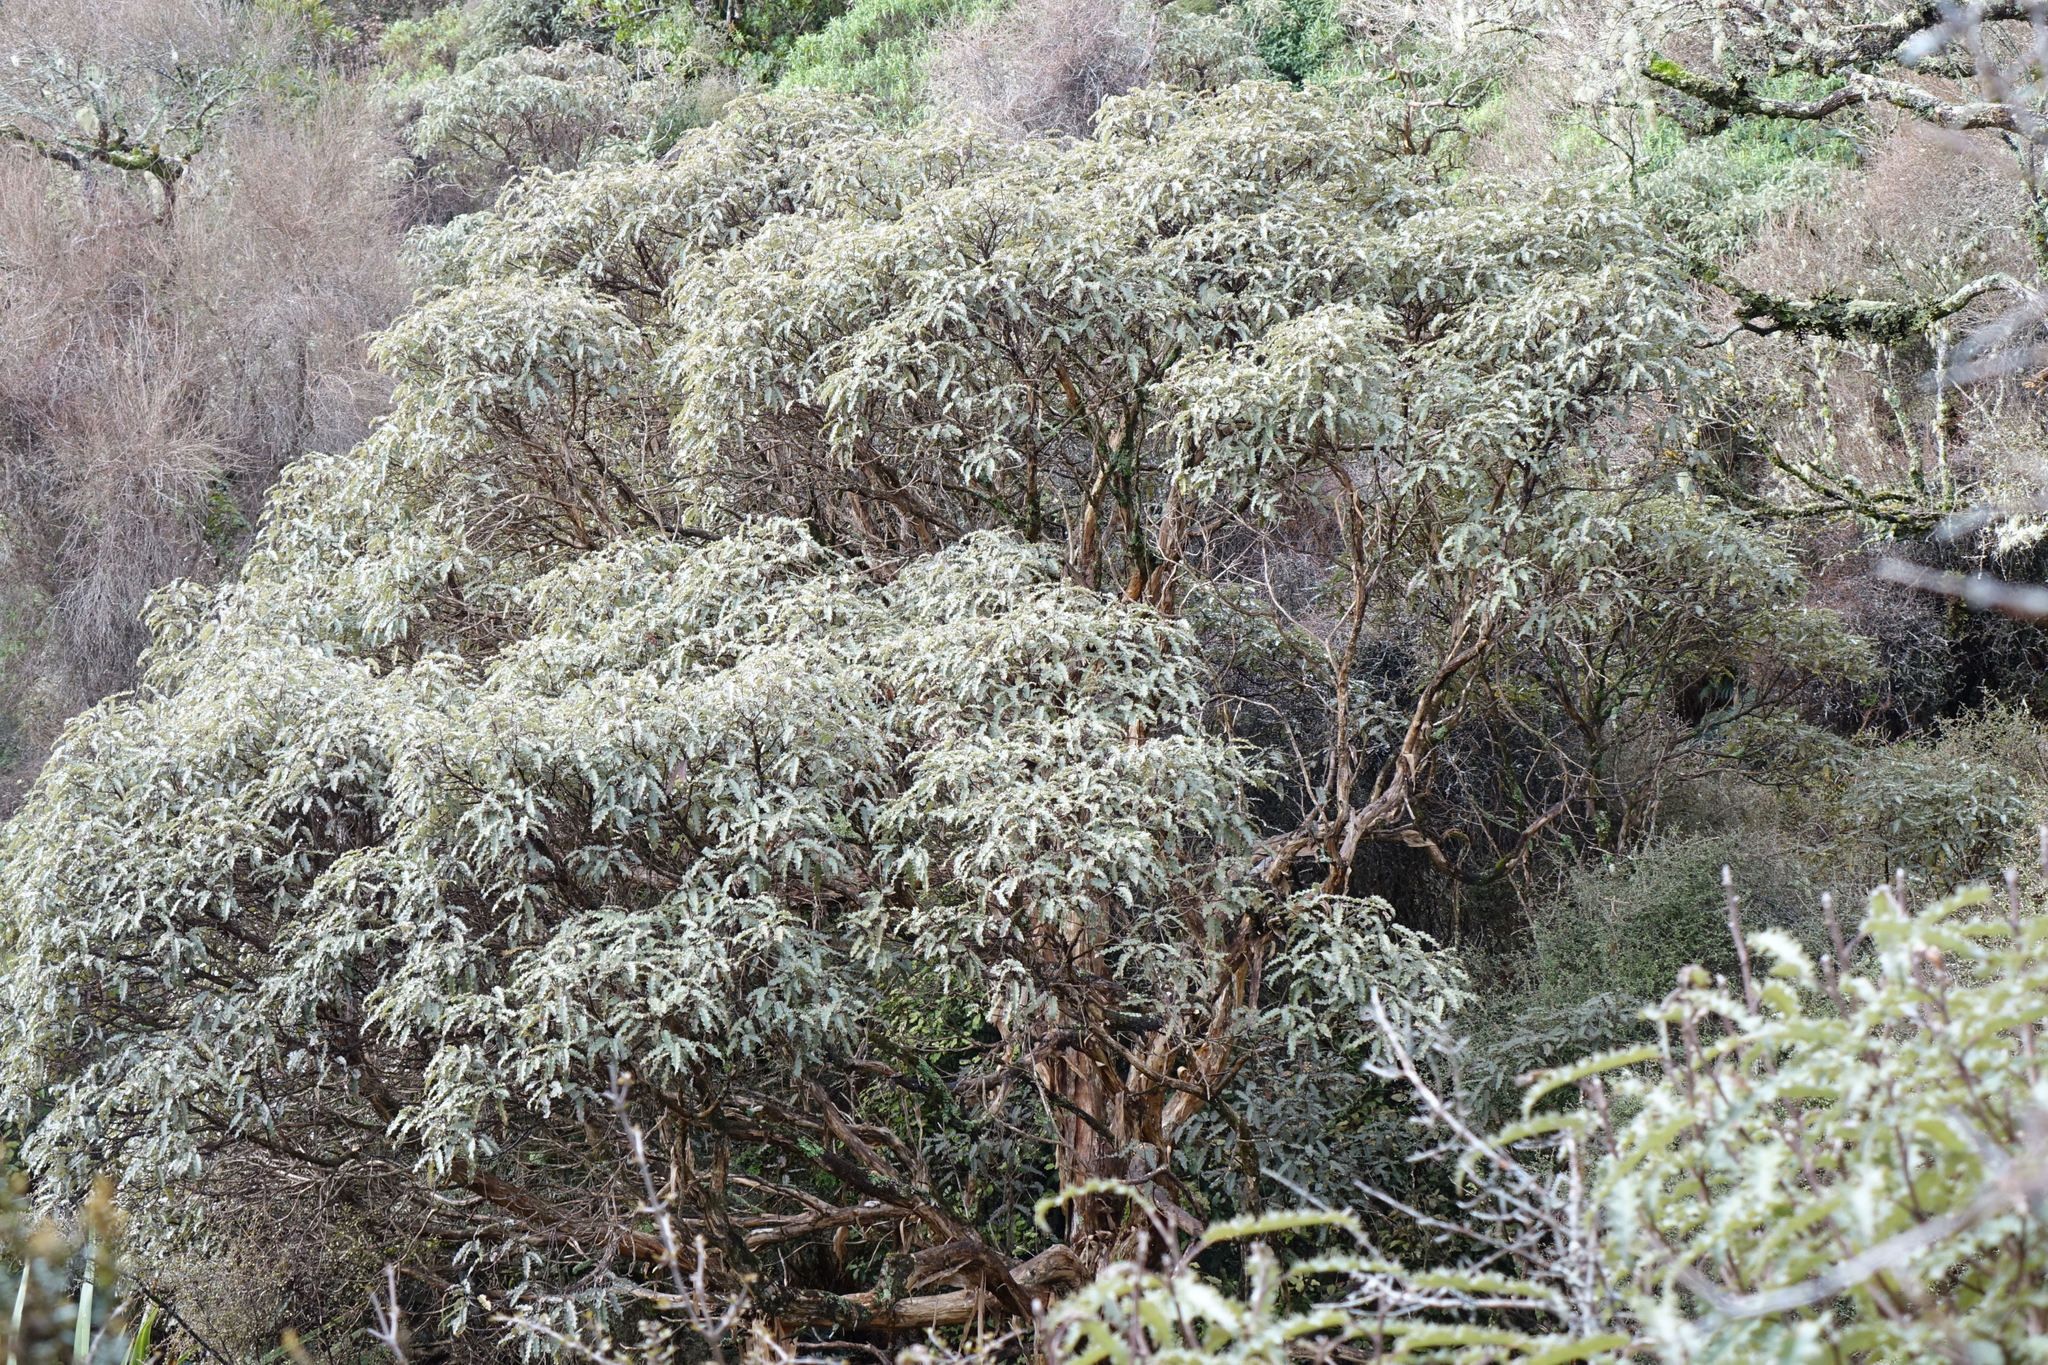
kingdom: Plantae
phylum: Tracheophyta
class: Magnoliopsida
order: Asterales
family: Asteraceae
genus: Olearia
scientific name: Olearia ilicifolia
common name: Maori-holly
